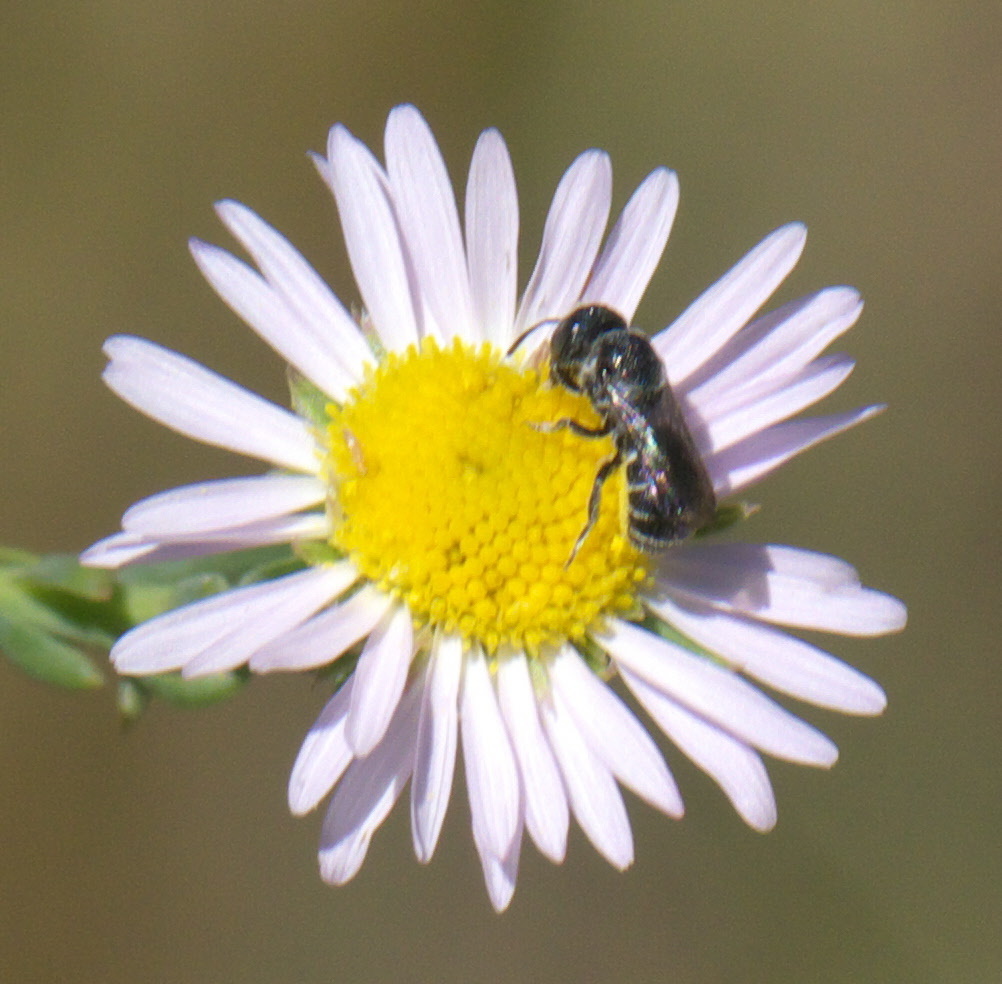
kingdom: Animalia
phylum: Arthropoda
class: Insecta
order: Hymenoptera
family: Megachilidae
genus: Heriades
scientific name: Heriades
